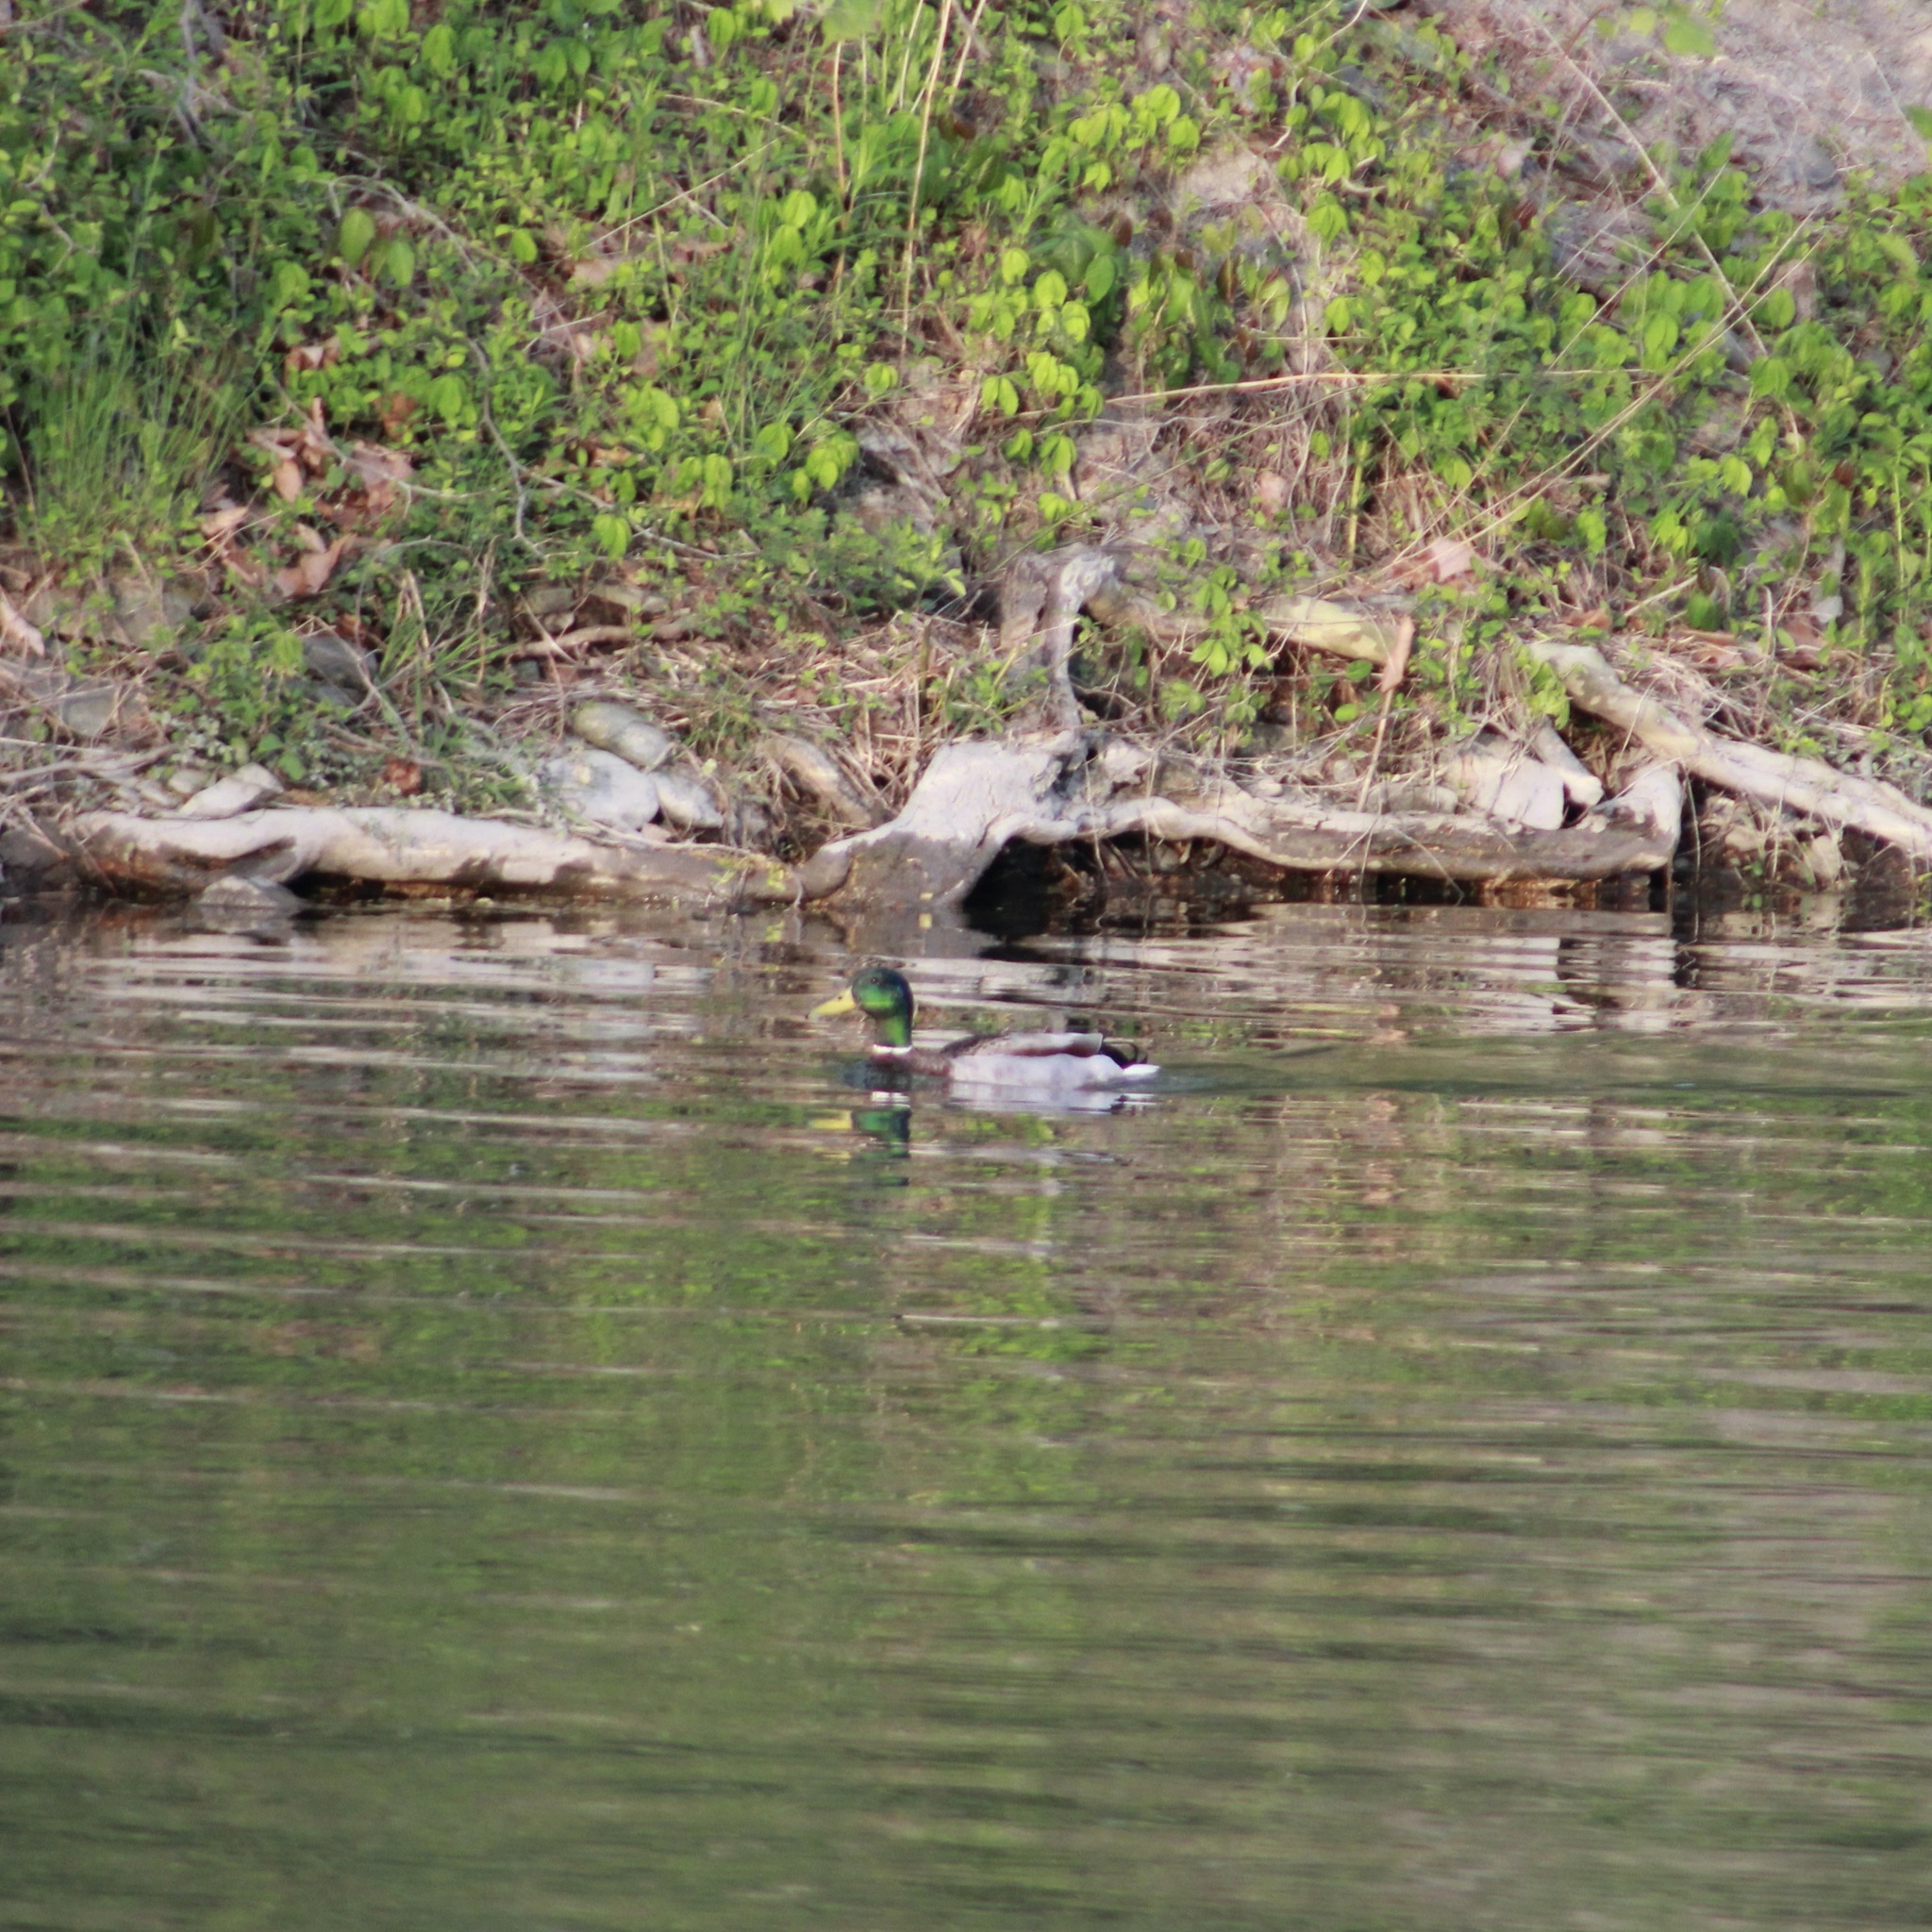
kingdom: Animalia
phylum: Chordata
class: Aves
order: Anseriformes
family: Anatidae
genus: Anas
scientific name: Anas platyrhynchos
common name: Mallard
